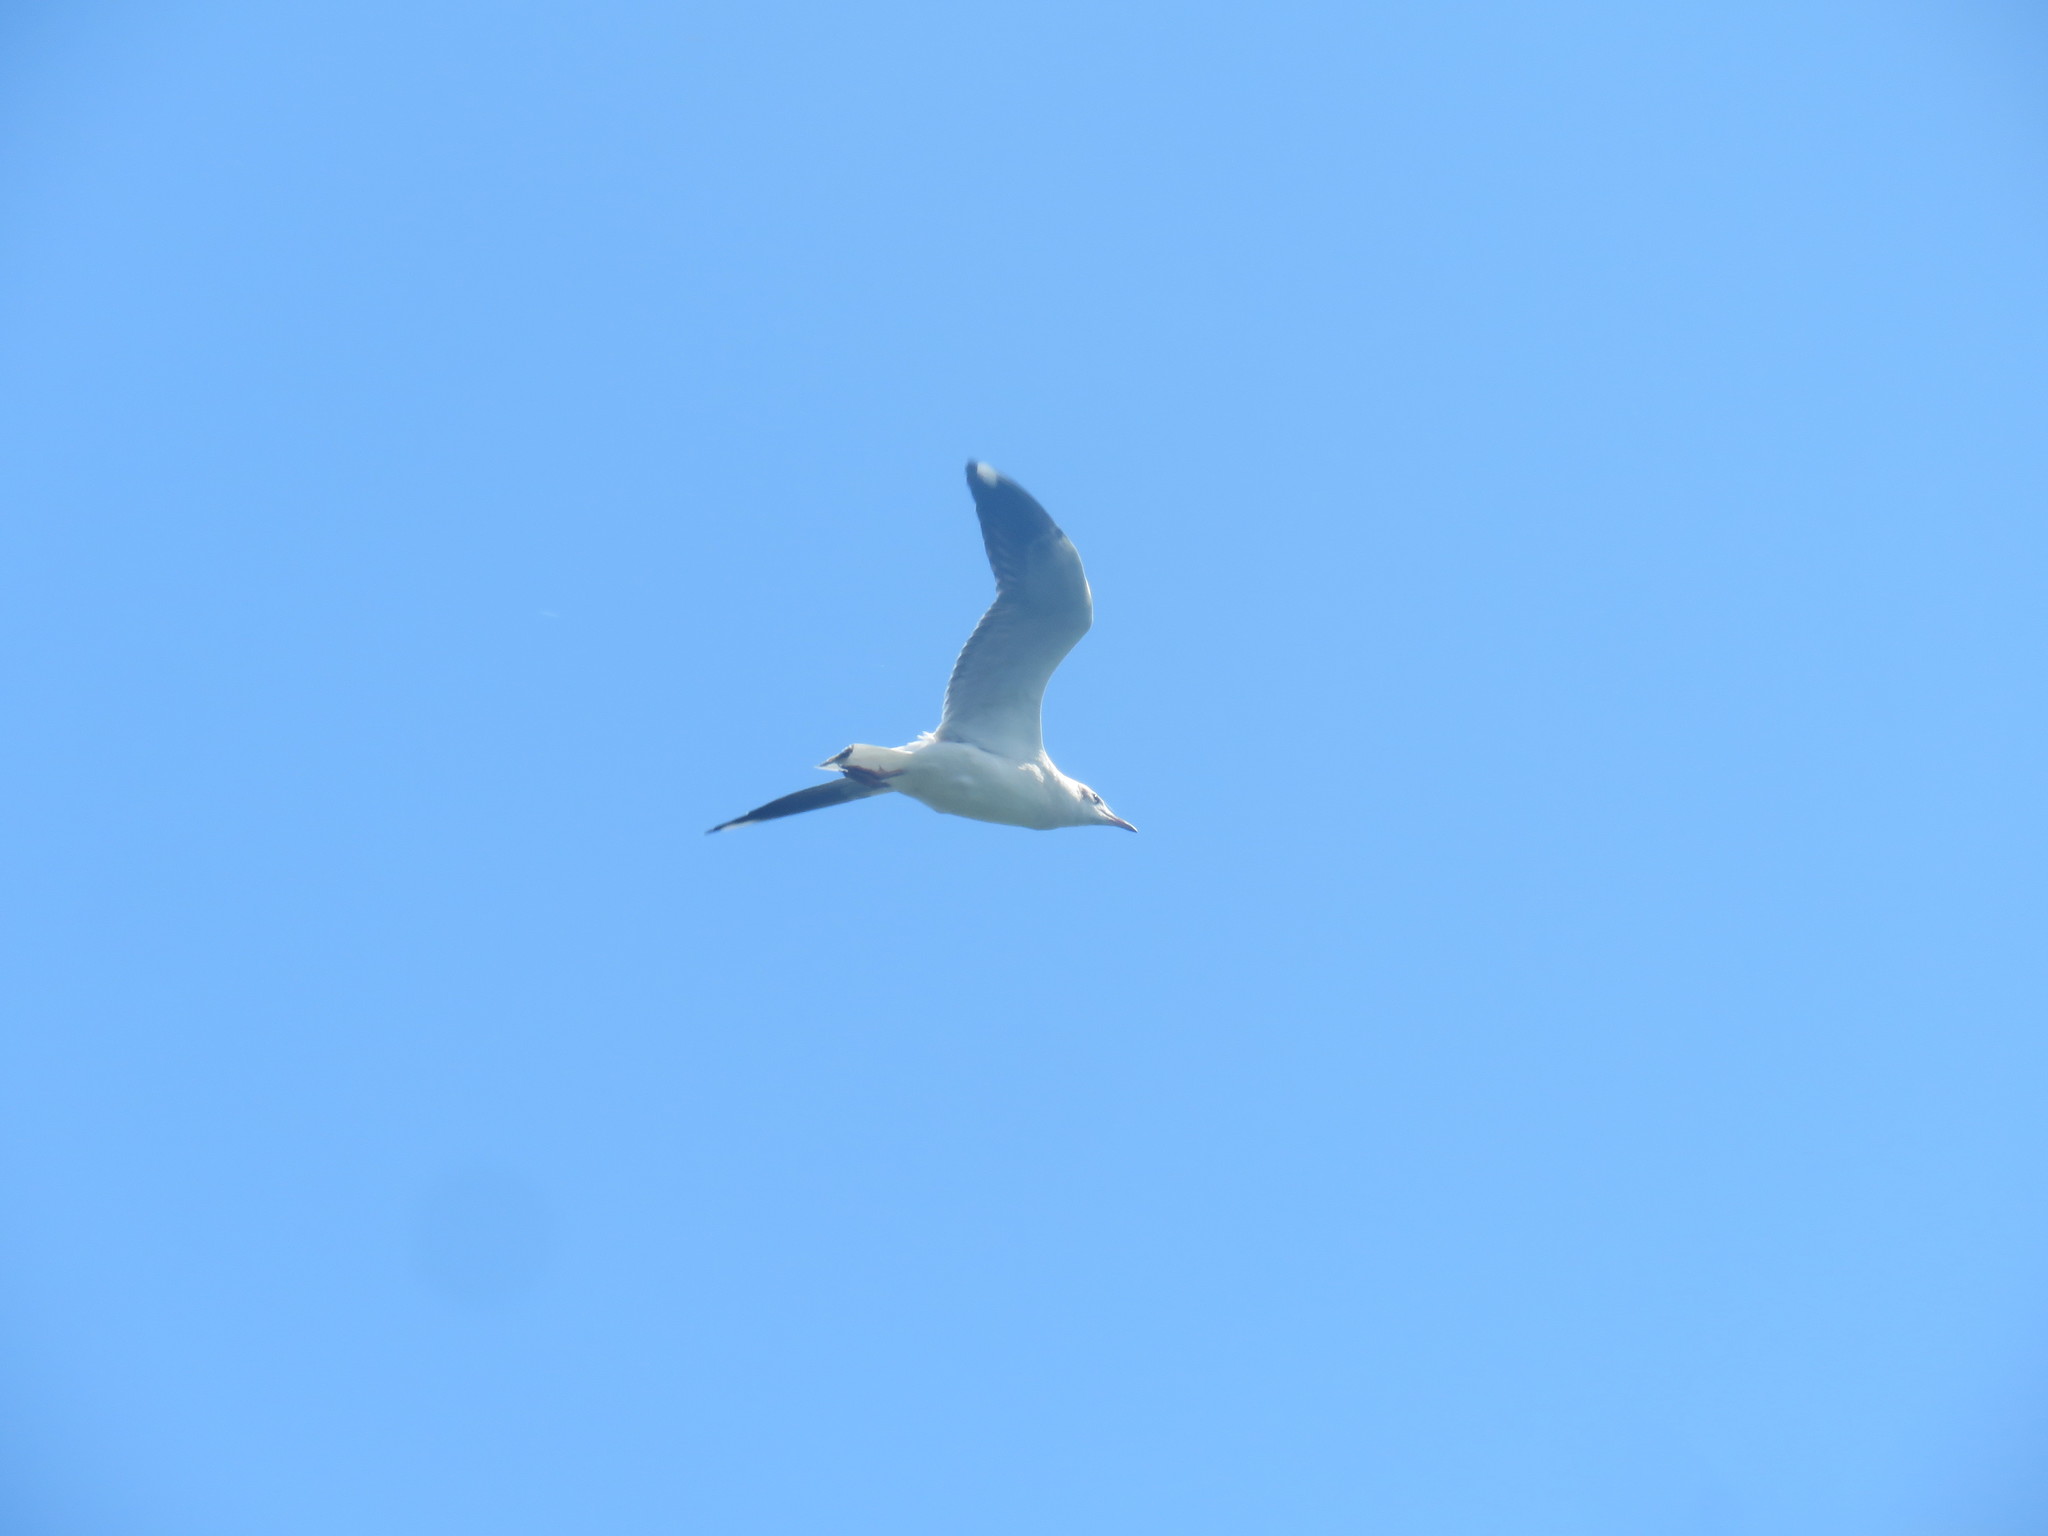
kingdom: Animalia
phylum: Chordata
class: Aves
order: Charadriiformes
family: Laridae
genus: Chroicocephalus
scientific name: Chroicocephalus maculipennis
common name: Brown-hooded gull
